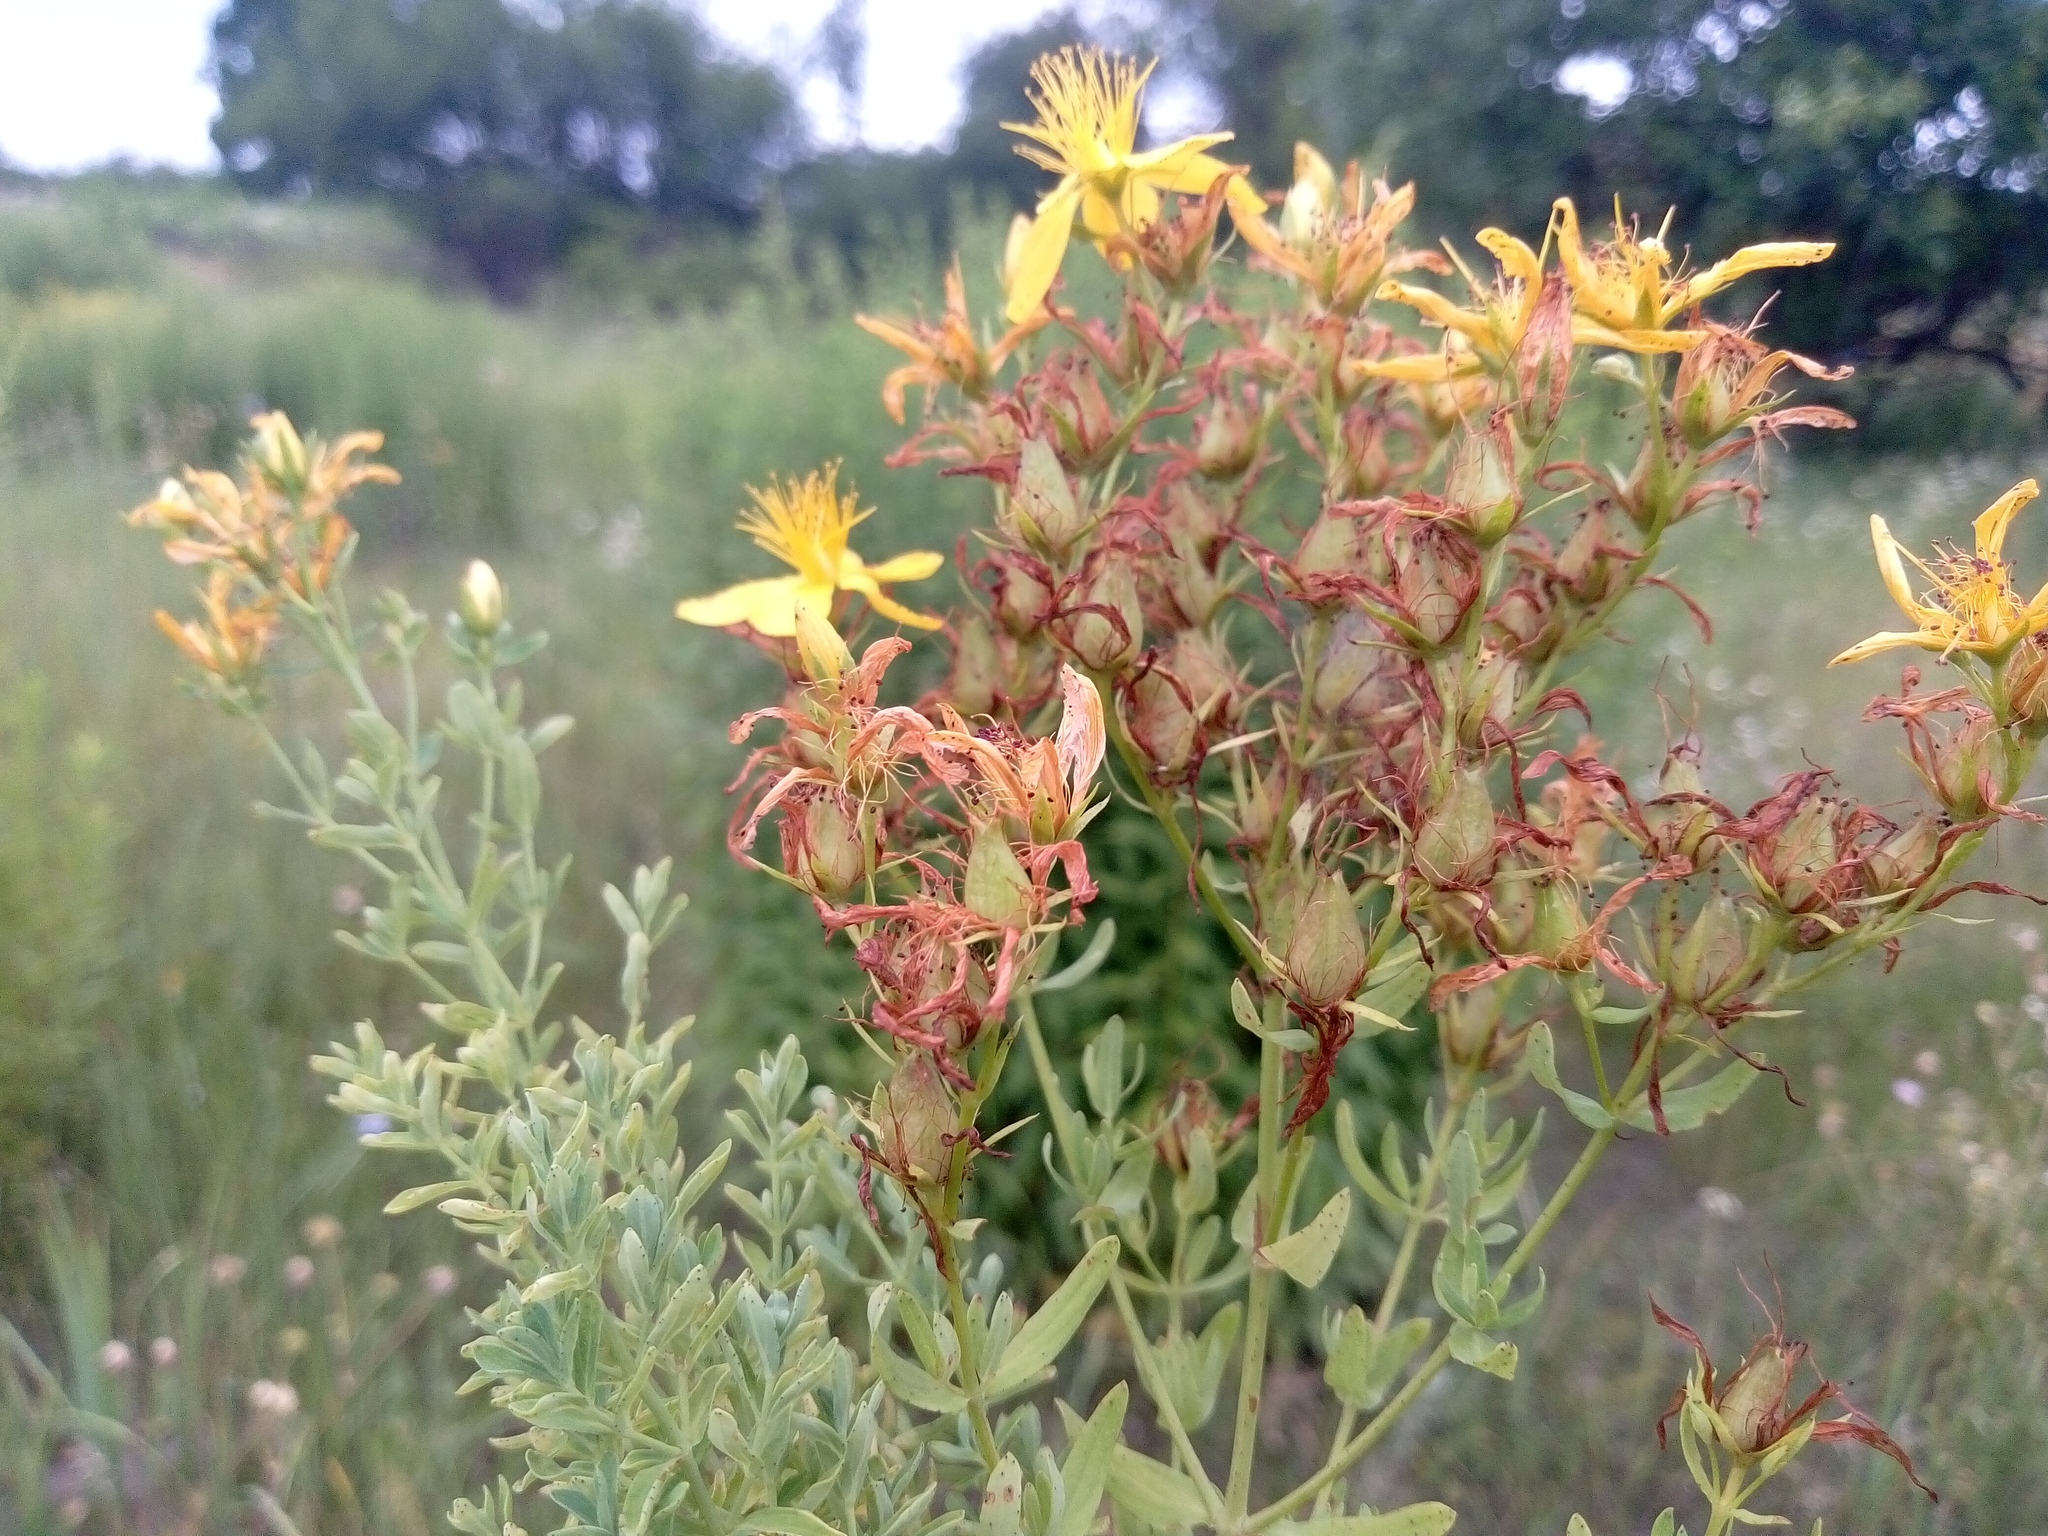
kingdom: Plantae
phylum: Tracheophyta
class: Magnoliopsida
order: Malpighiales
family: Hypericaceae
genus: Hypericum
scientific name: Hypericum perforatum
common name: Common st. johnswort
